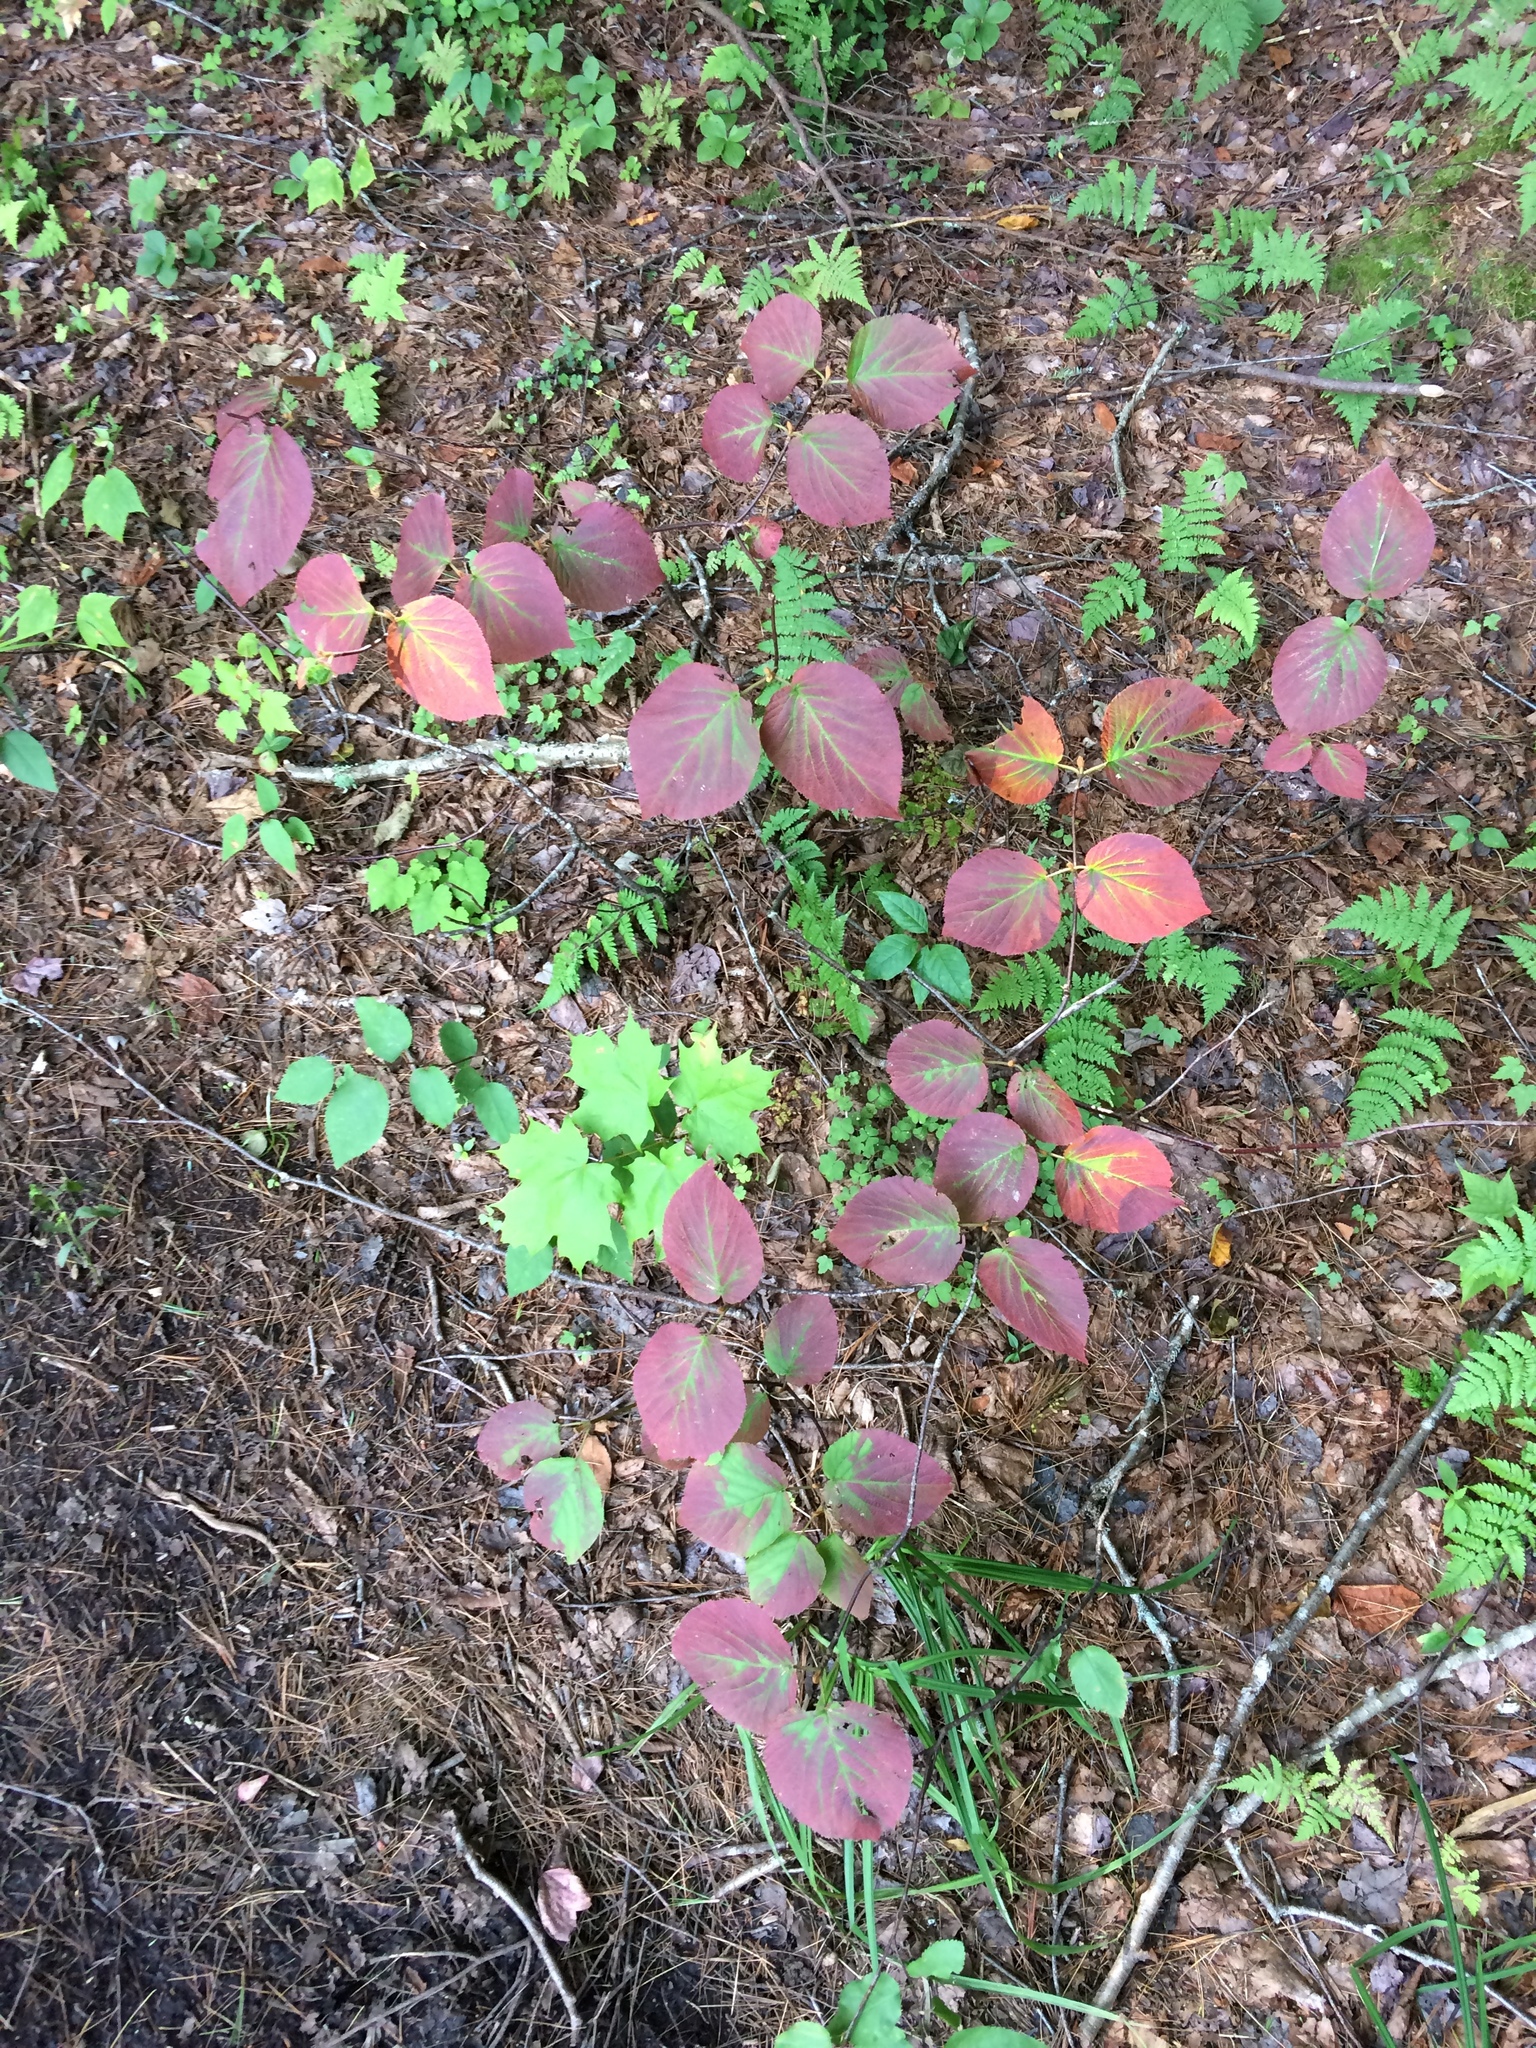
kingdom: Plantae
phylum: Tracheophyta
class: Magnoliopsida
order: Dipsacales
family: Viburnaceae
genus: Viburnum
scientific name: Viburnum lantanoides
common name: Hobblebush
